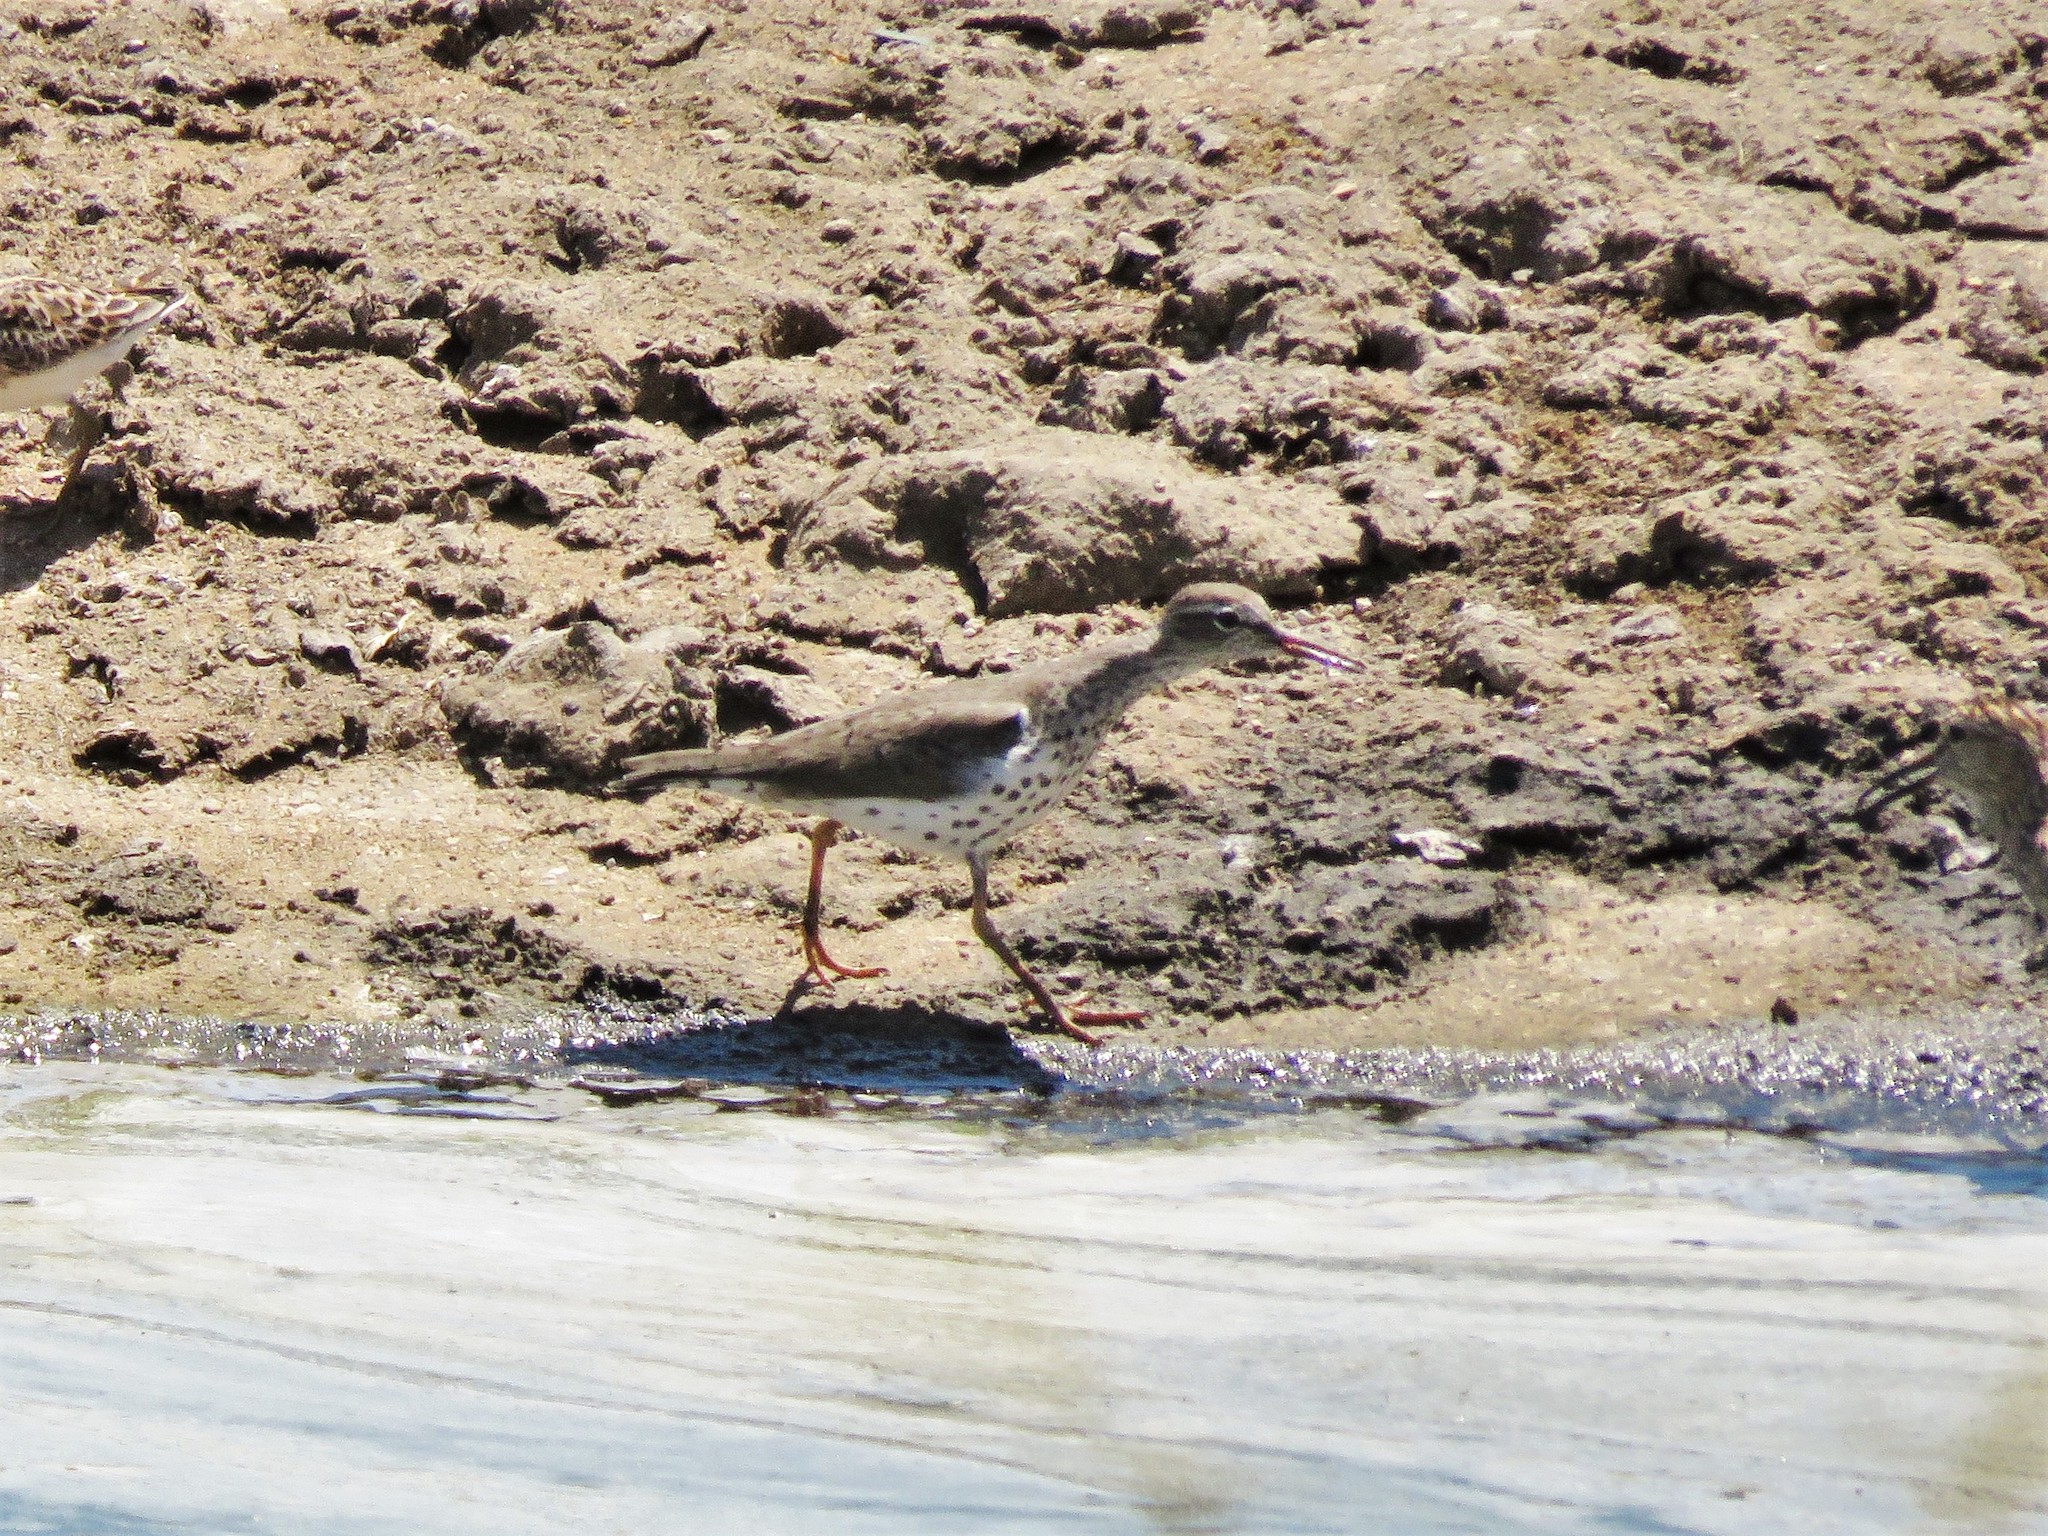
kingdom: Animalia
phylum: Chordata
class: Aves
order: Charadriiformes
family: Scolopacidae
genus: Actitis
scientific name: Actitis macularius
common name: Spotted sandpiper
